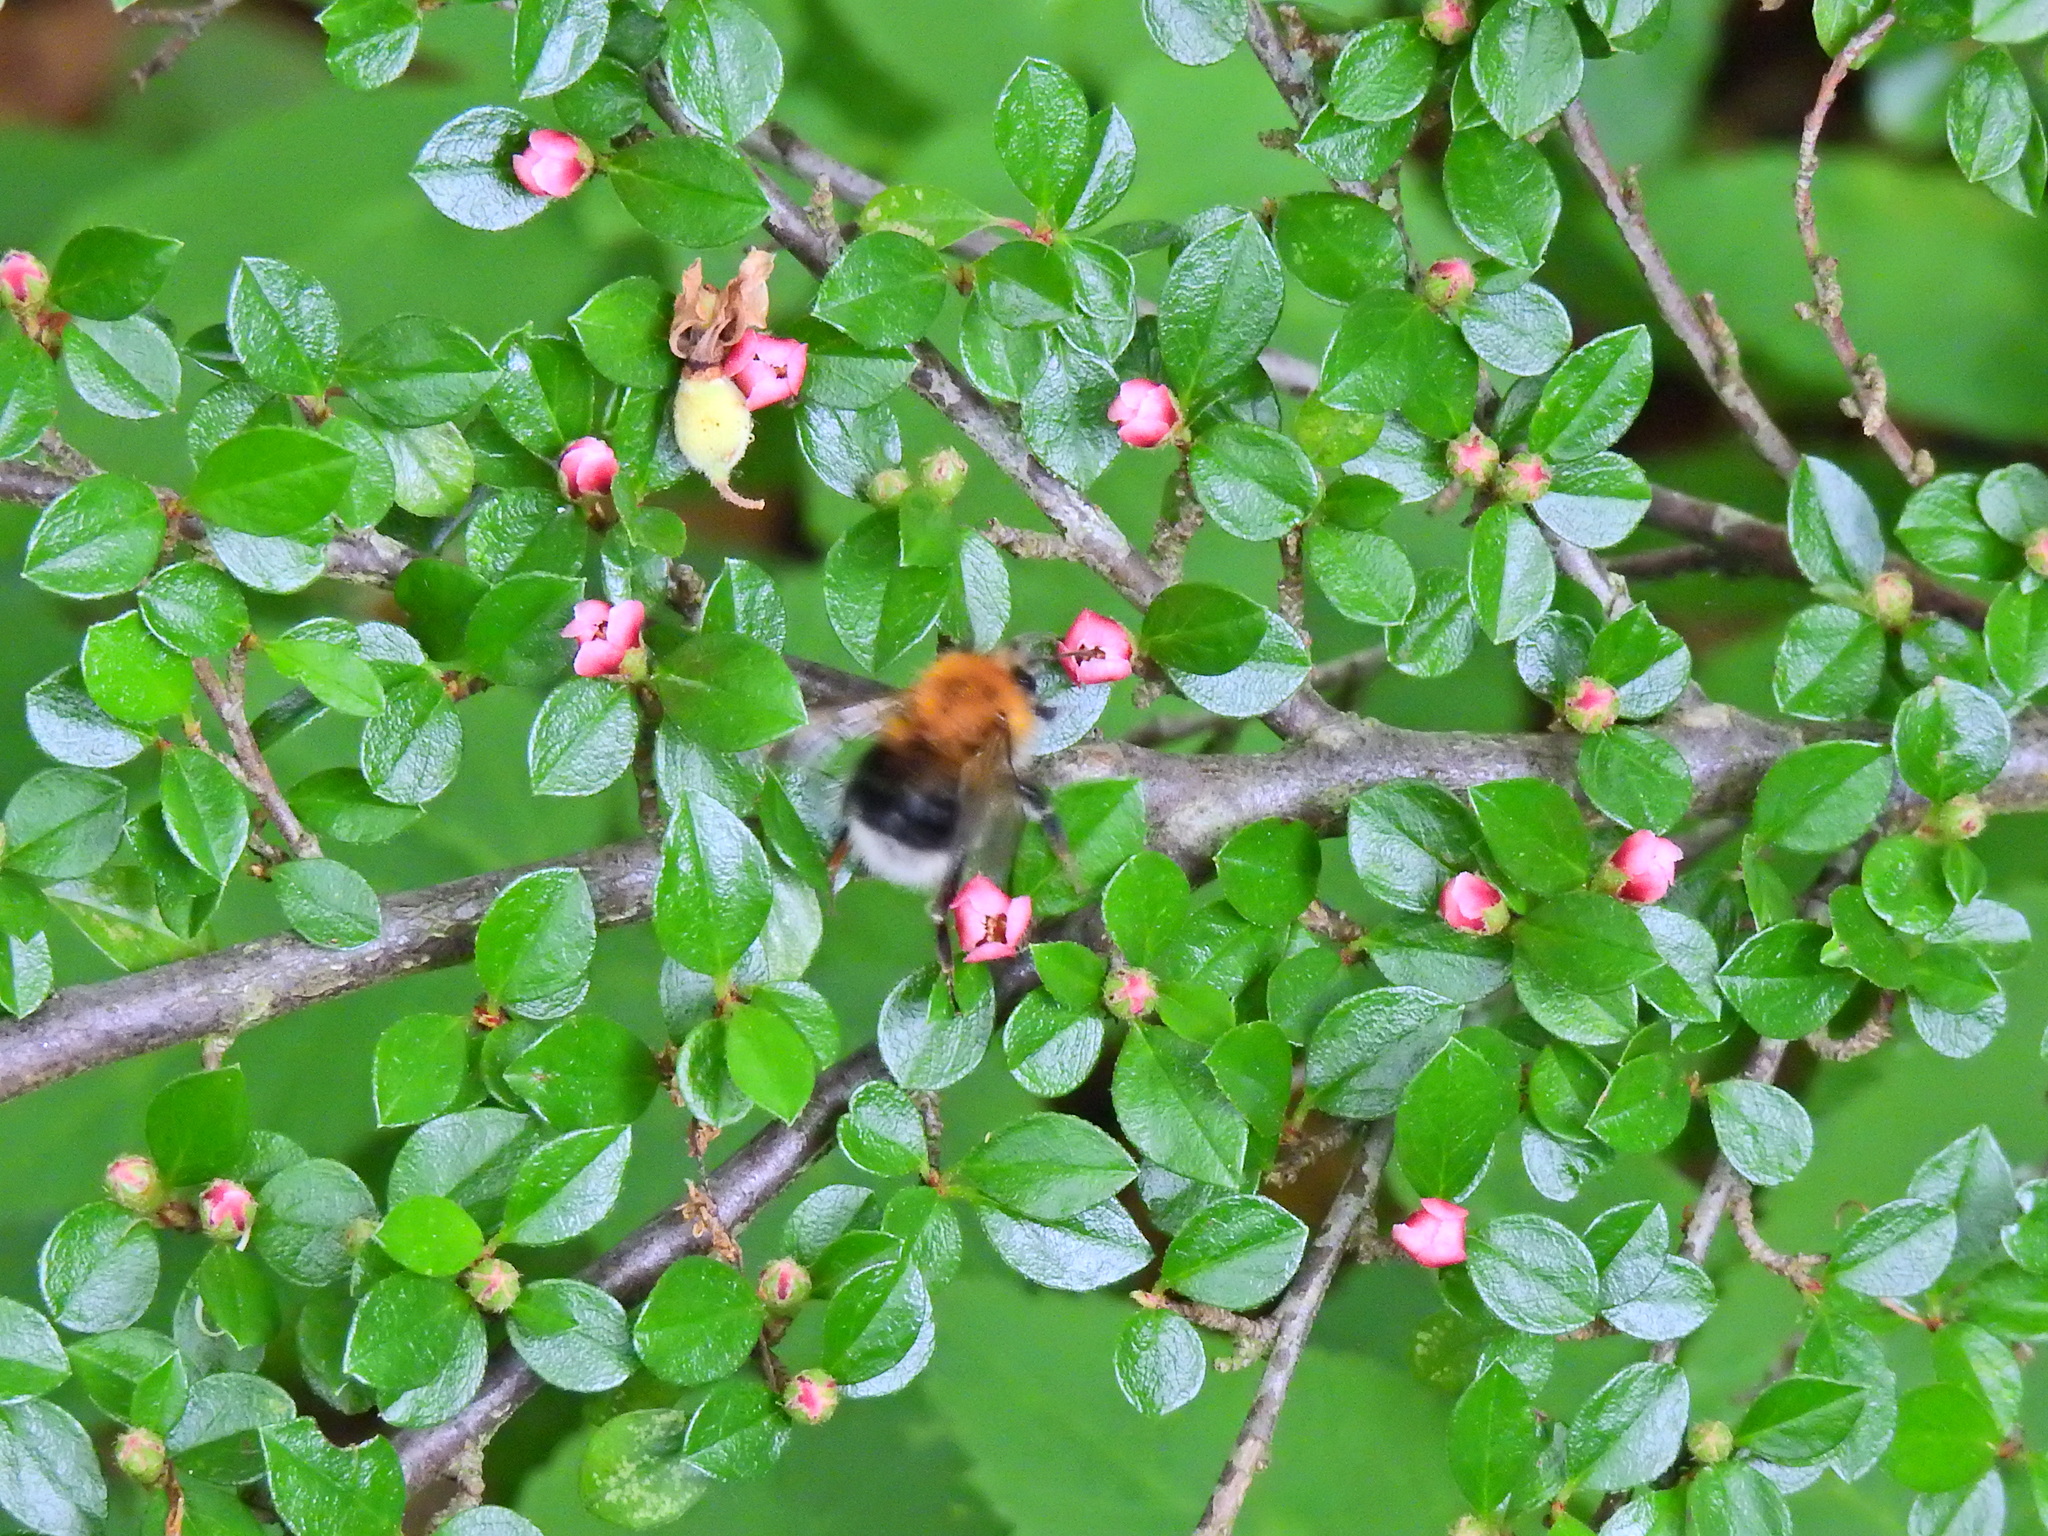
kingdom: Animalia
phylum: Arthropoda
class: Insecta
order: Hymenoptera
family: Apidae
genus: Bombus
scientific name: Bombus hypnorum
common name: New garden bumblebee
